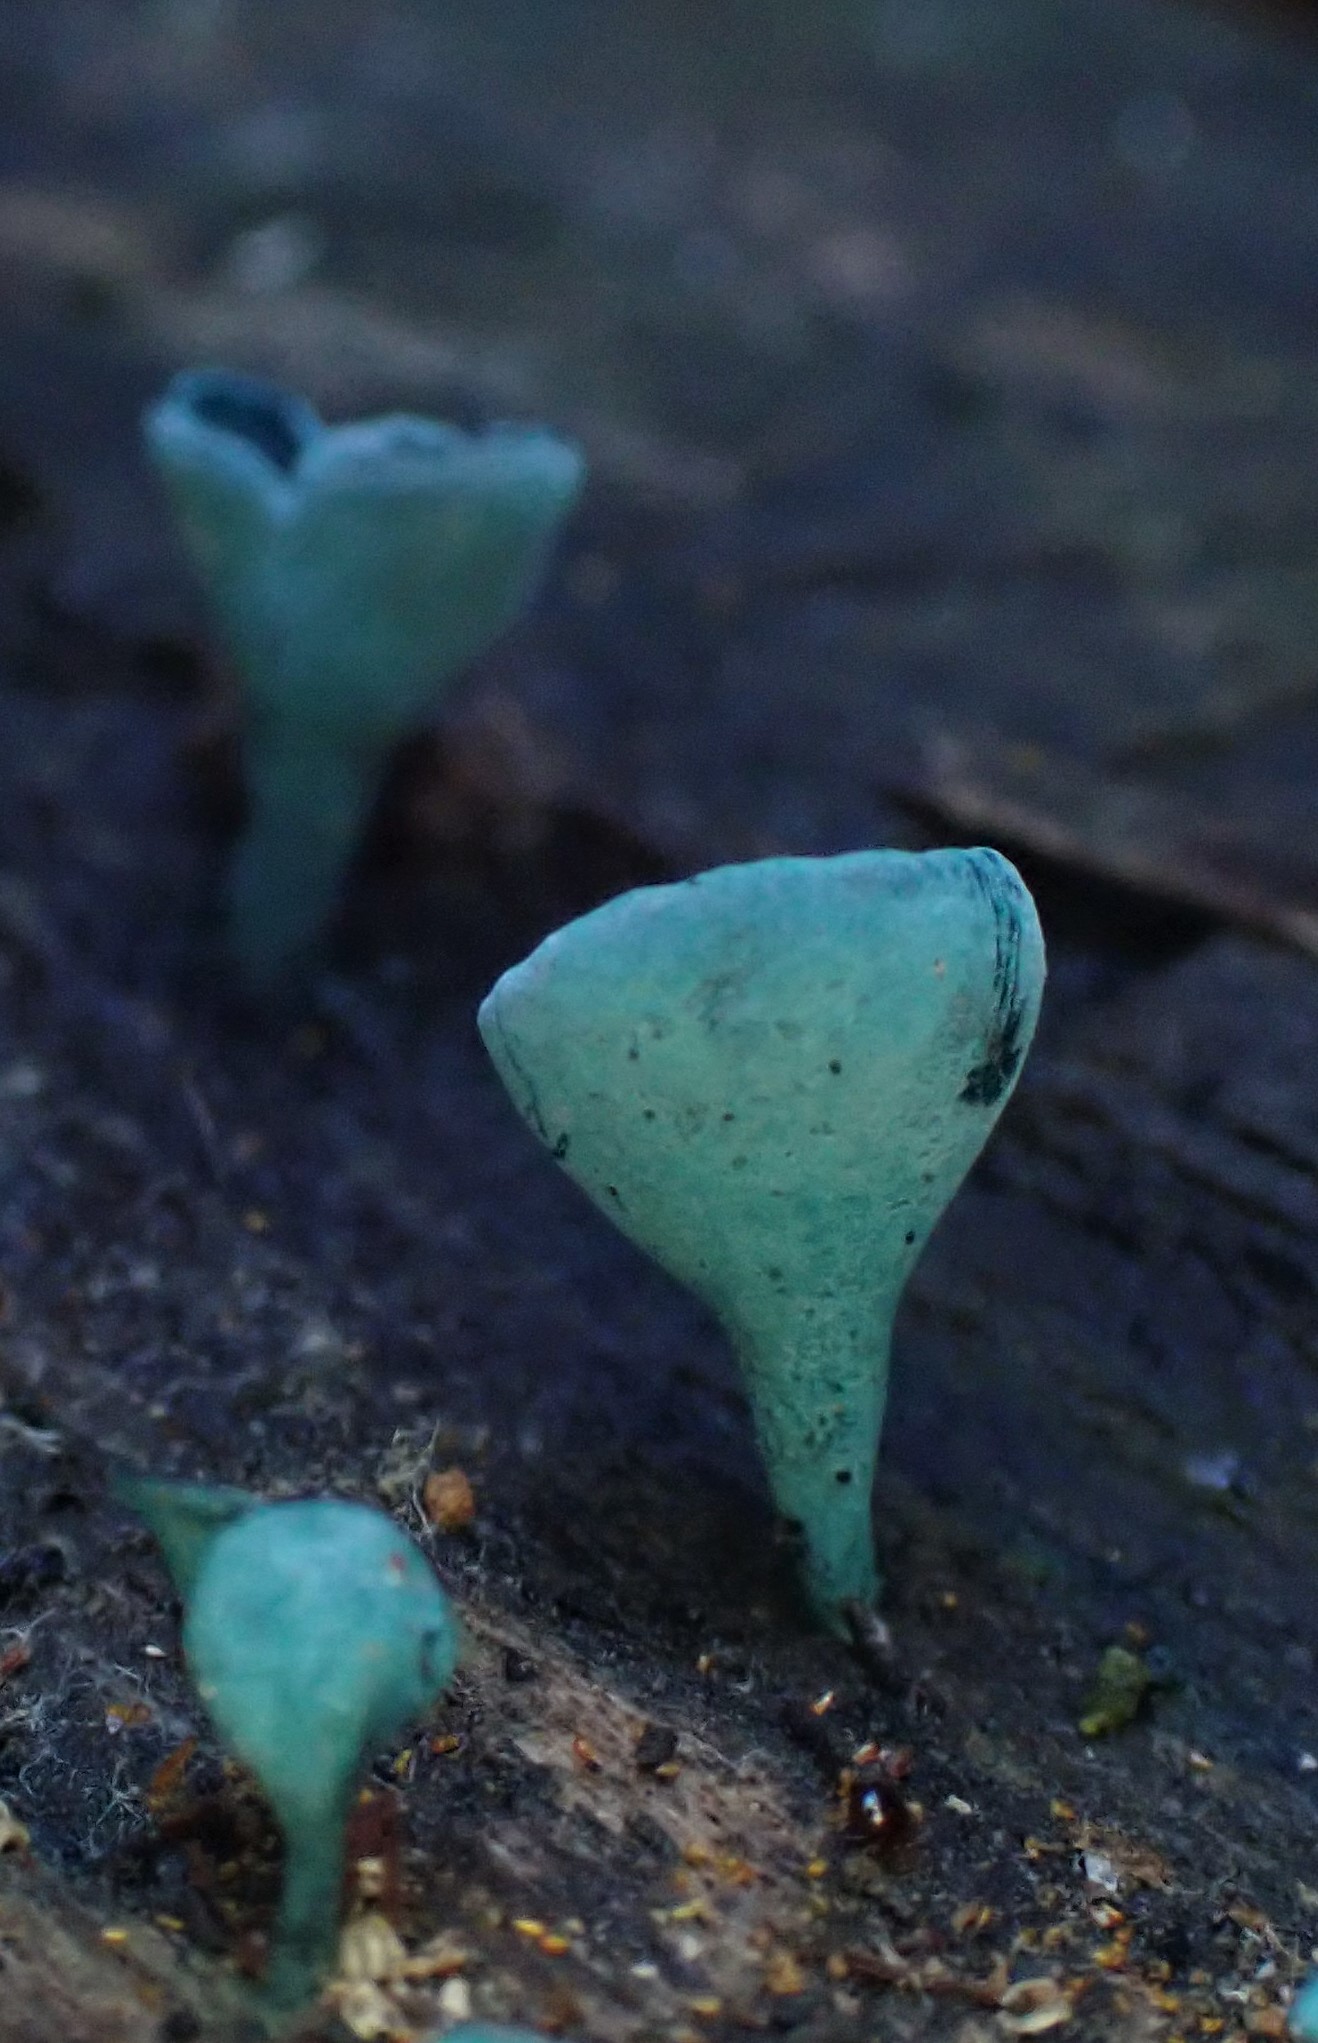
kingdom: Fungi
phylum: Ascomycota
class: Leotiomycetes
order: Helotiales
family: Chlorociboriaceae
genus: Chlorociboria
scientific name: Chlorociboria
